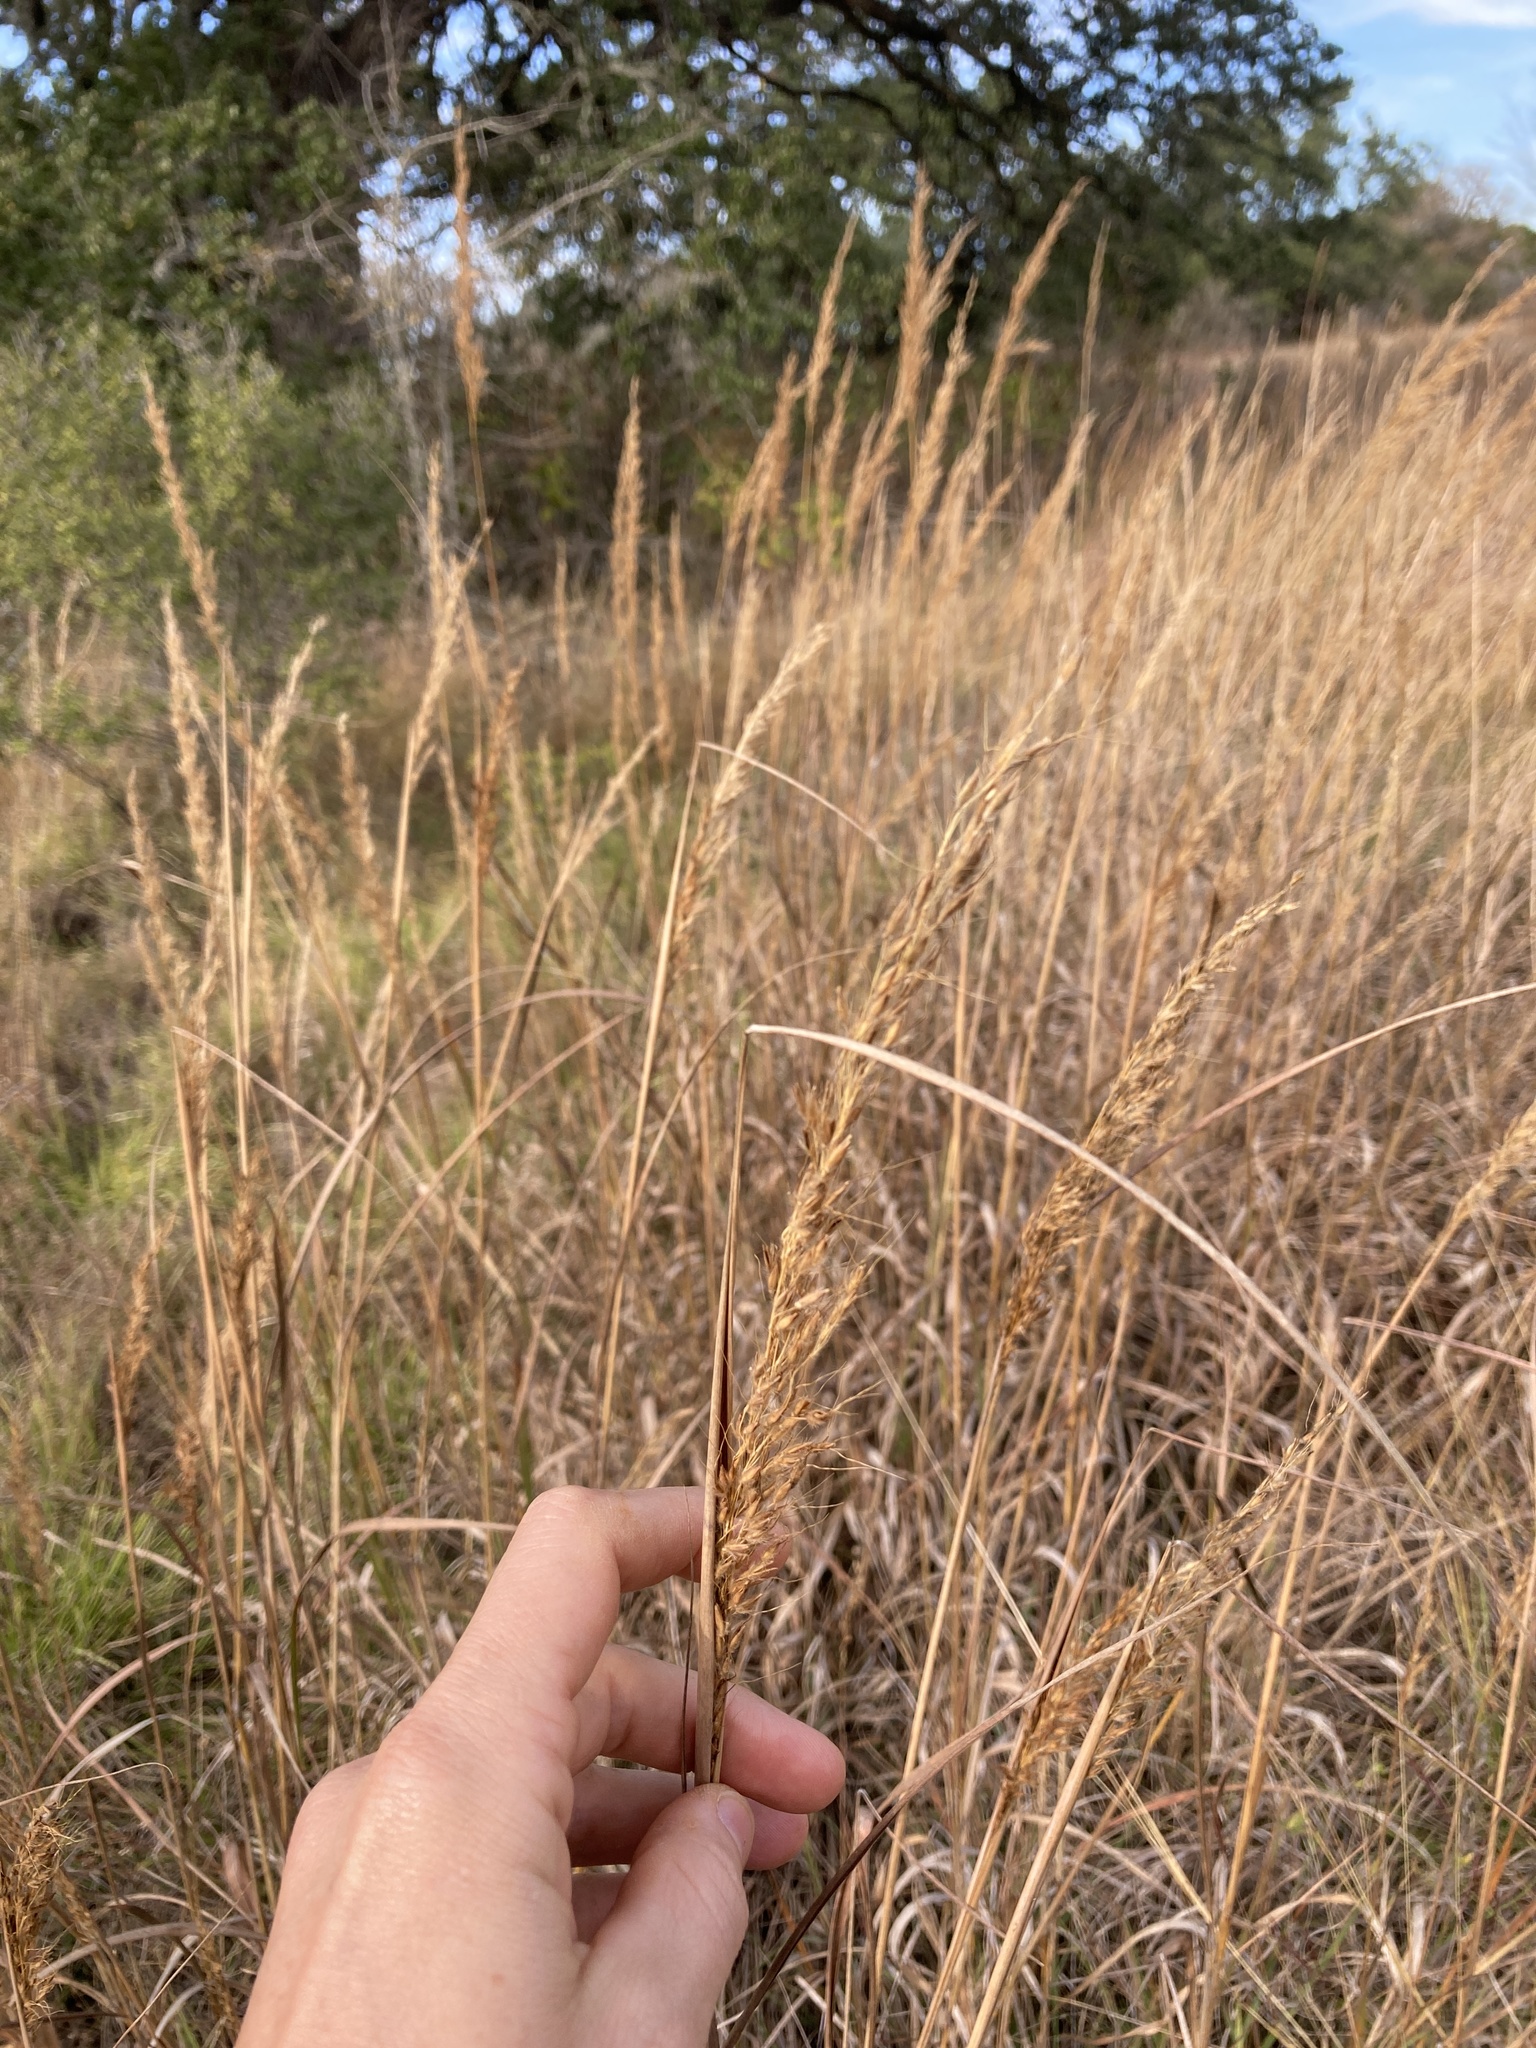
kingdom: Plantae
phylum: Tracheophyta
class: Liliopsida
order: Poales
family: Poaceae
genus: Sorghastrum
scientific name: Sorghastrum nutans
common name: Indian grass
